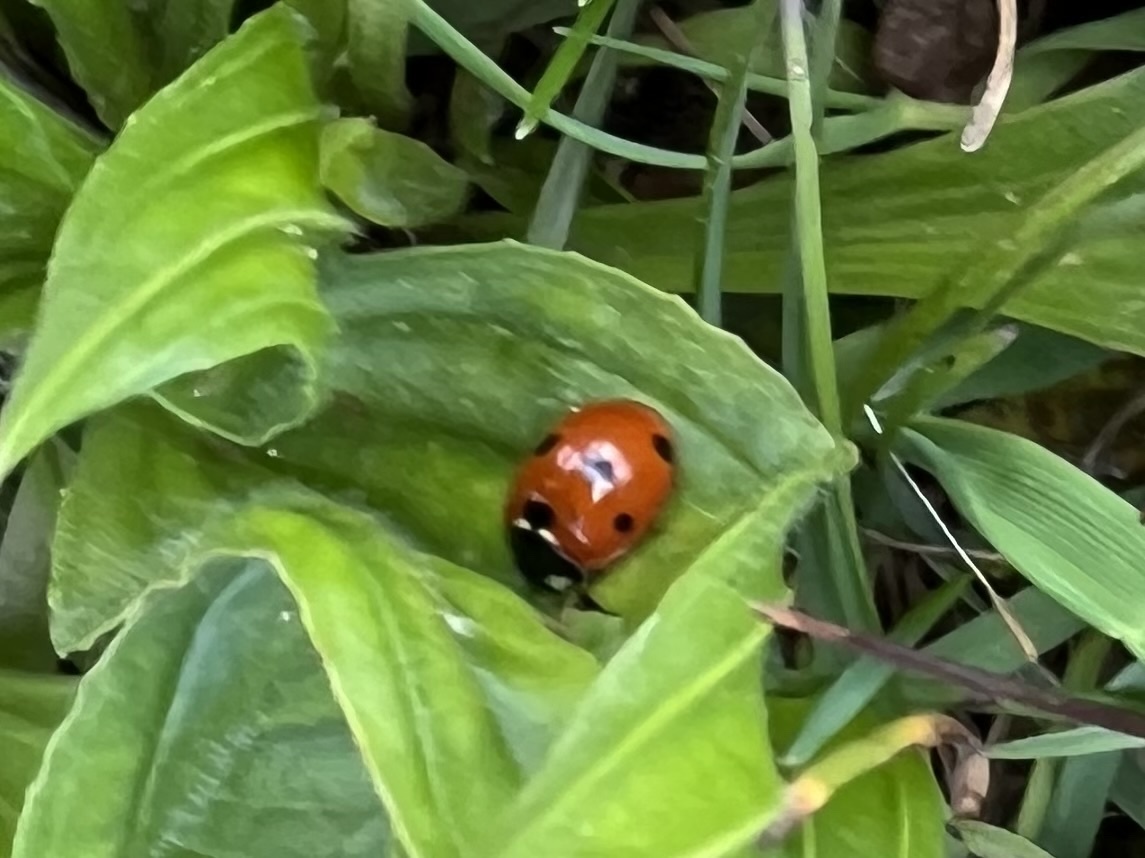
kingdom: Animalia
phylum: Arthropoda
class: Insecta
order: Coleoptera
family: Coccinellidae
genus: Coccinella
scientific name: Coccinella septempunctata
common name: Sevenspotted lady beetle
